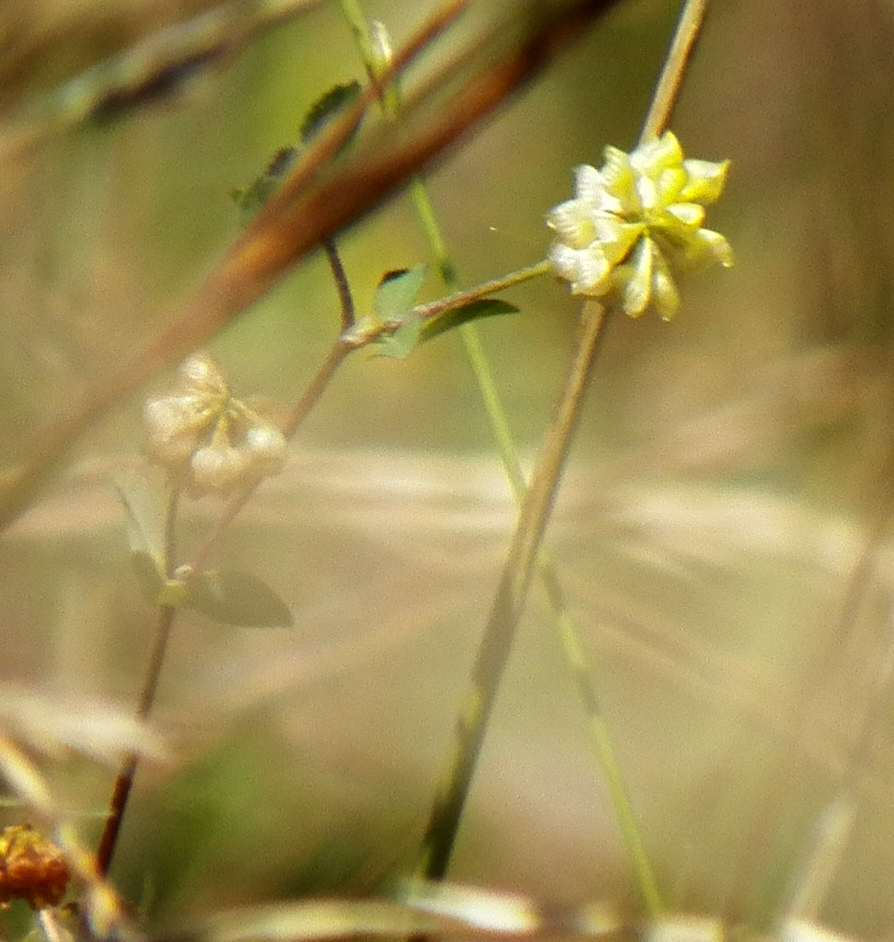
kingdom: Plantae
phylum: Tracheophyta
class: Magnoliopsida
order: Fabales
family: Fabaceae
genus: Trifolium
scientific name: Trifolium campestre
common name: Field clover
